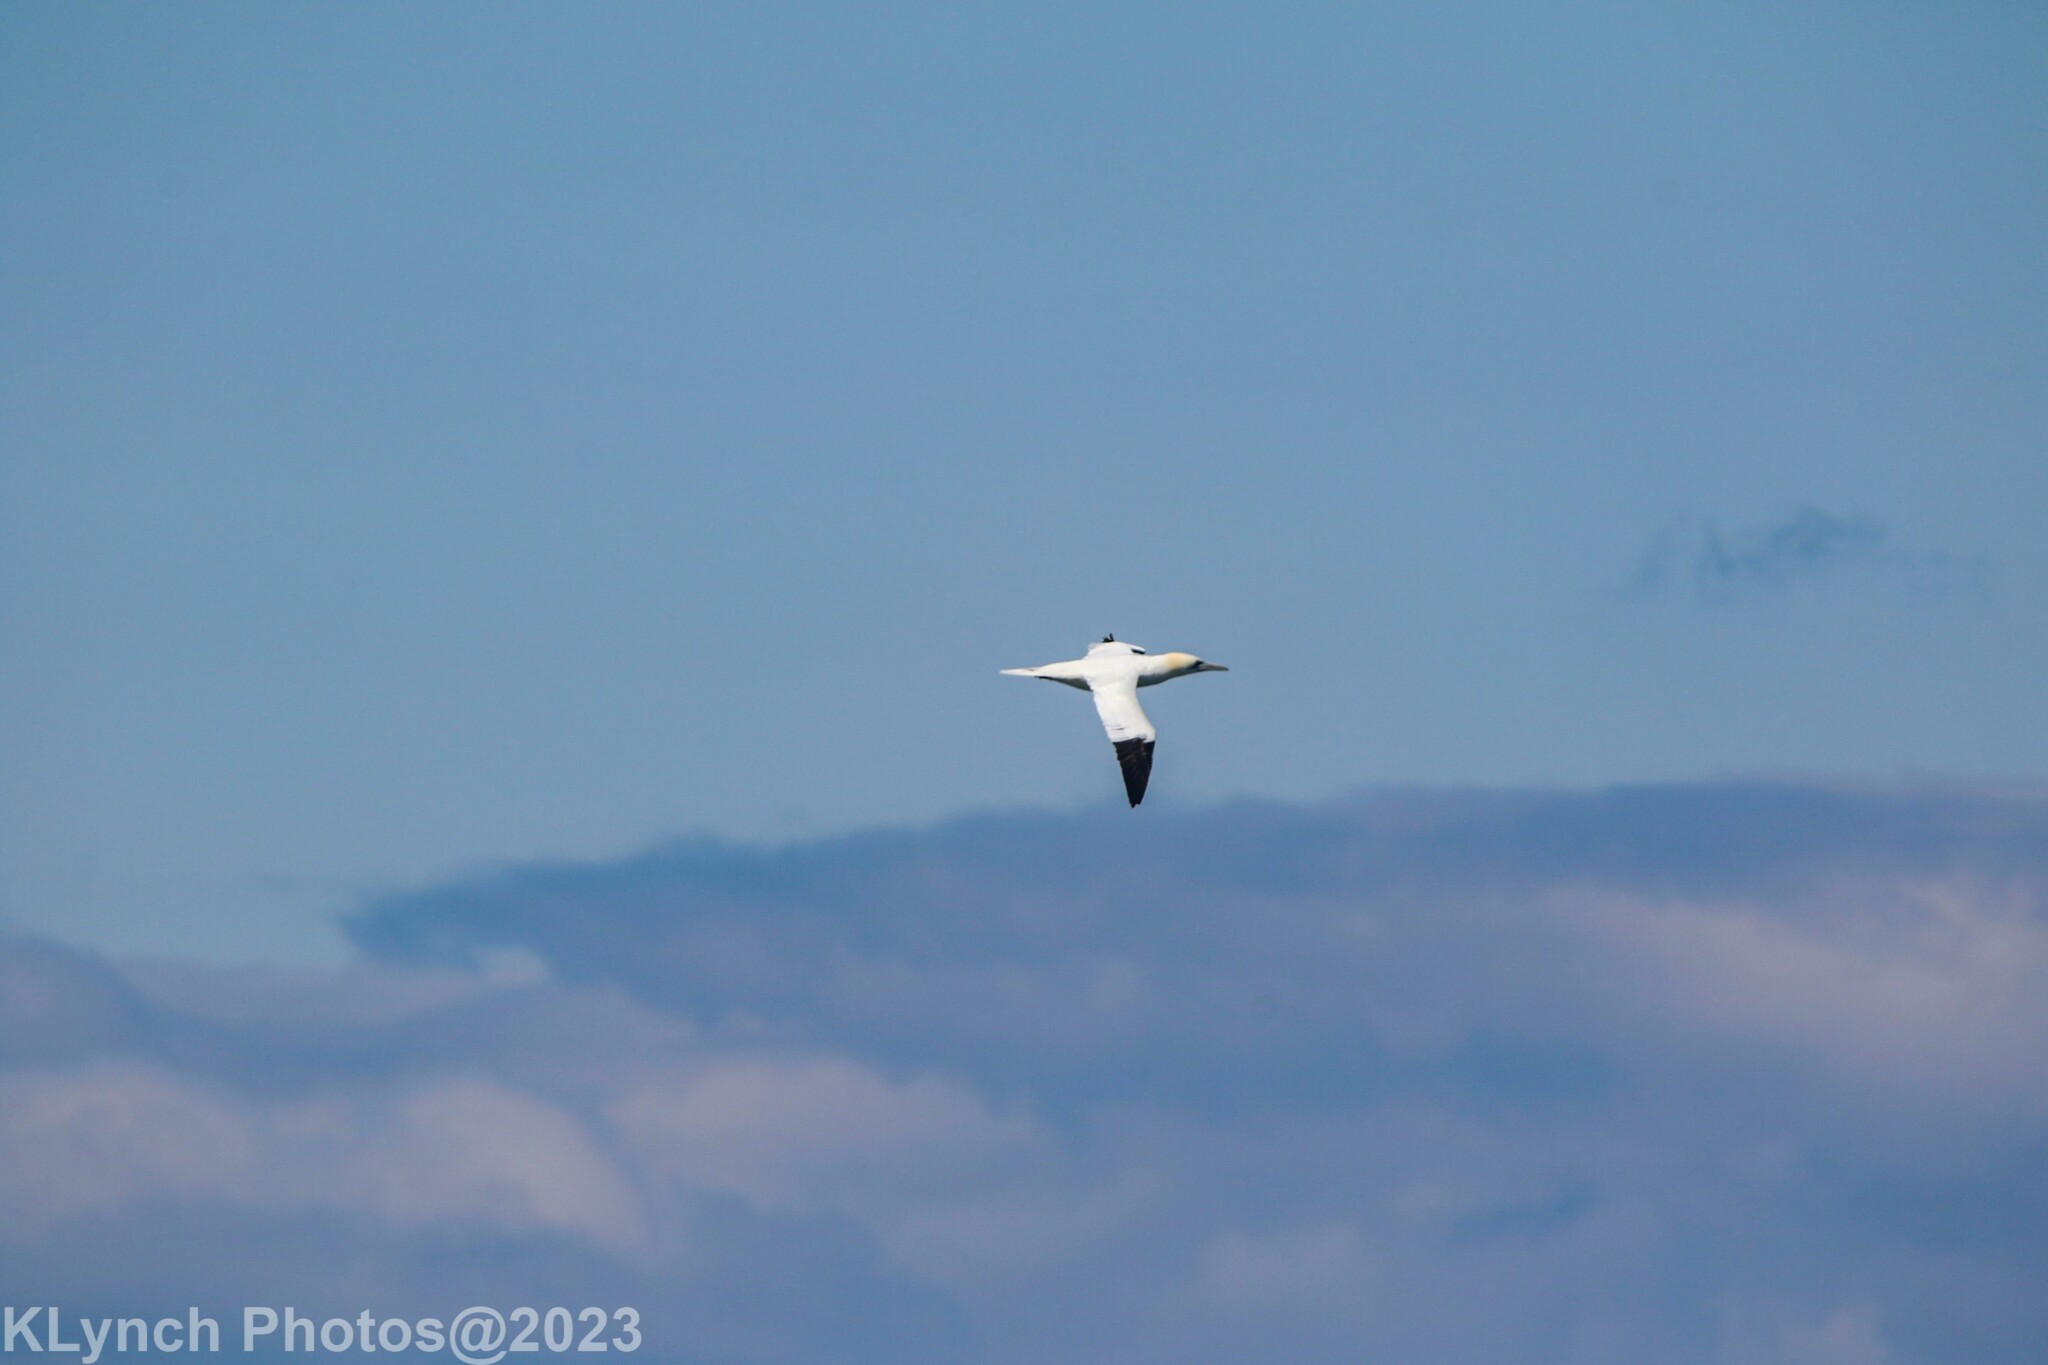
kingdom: Animalia
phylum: Chordata
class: Aves
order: Suliformes
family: Sulidae
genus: Morus
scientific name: Morus bassanus
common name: Northern gannet
